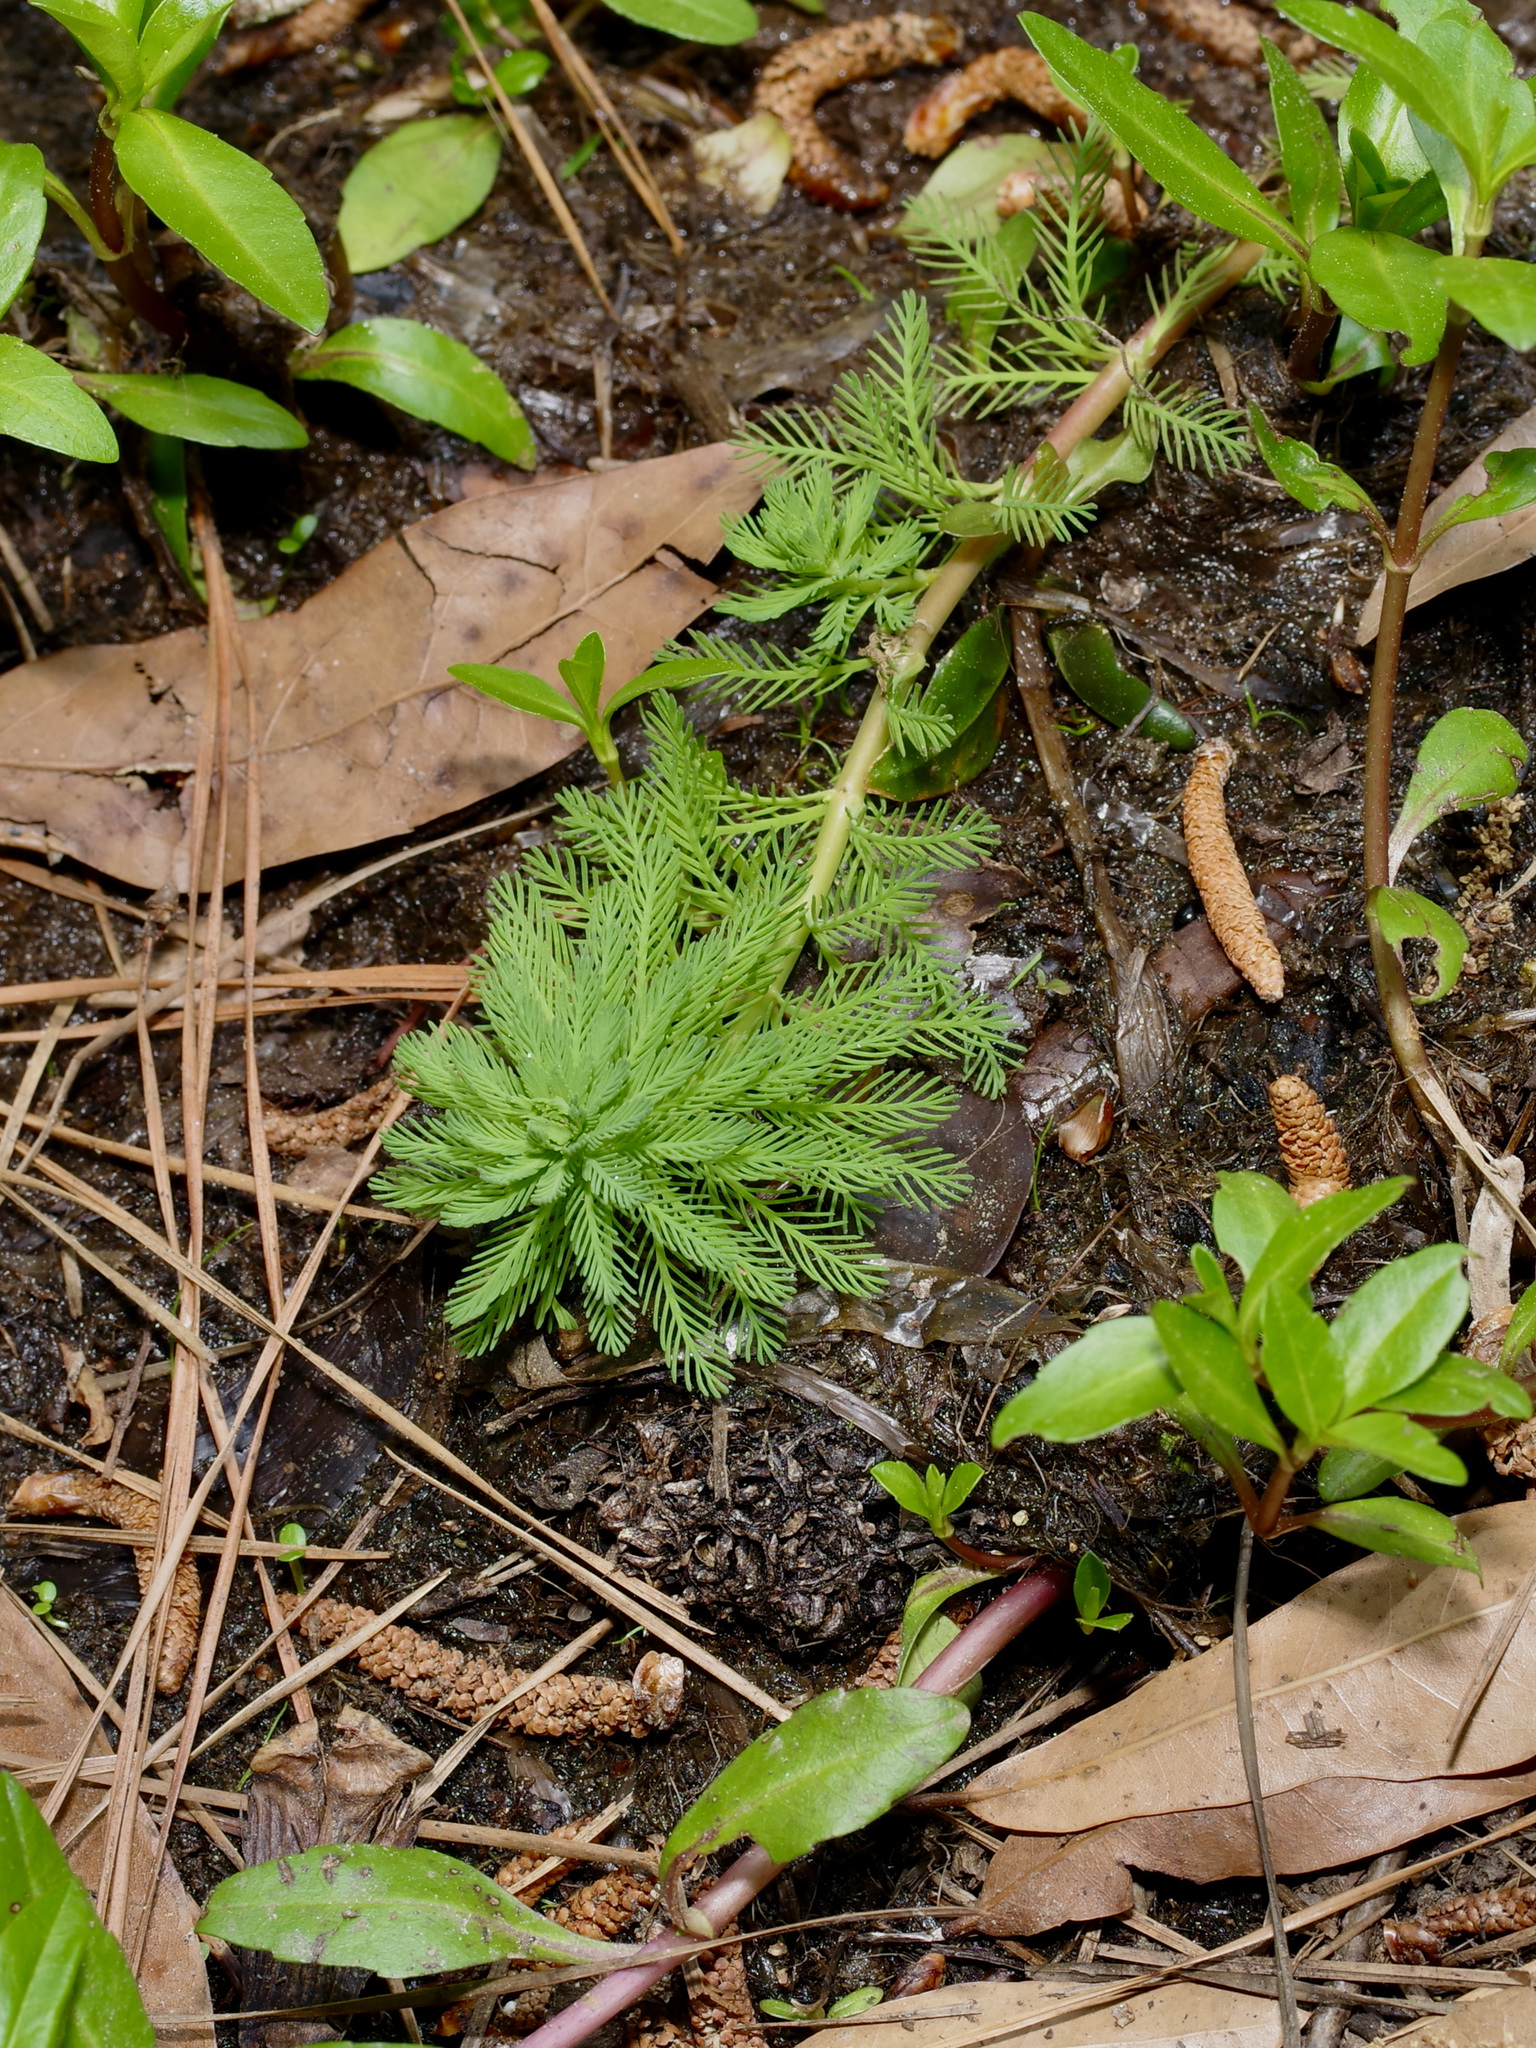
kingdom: Plantae
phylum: Tracheophyta
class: Magnoliopsida
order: Saxifragales
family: Haloragaceae
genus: Myriophyllum
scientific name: Myriophyllum aquaticum
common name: Parrot's feather
